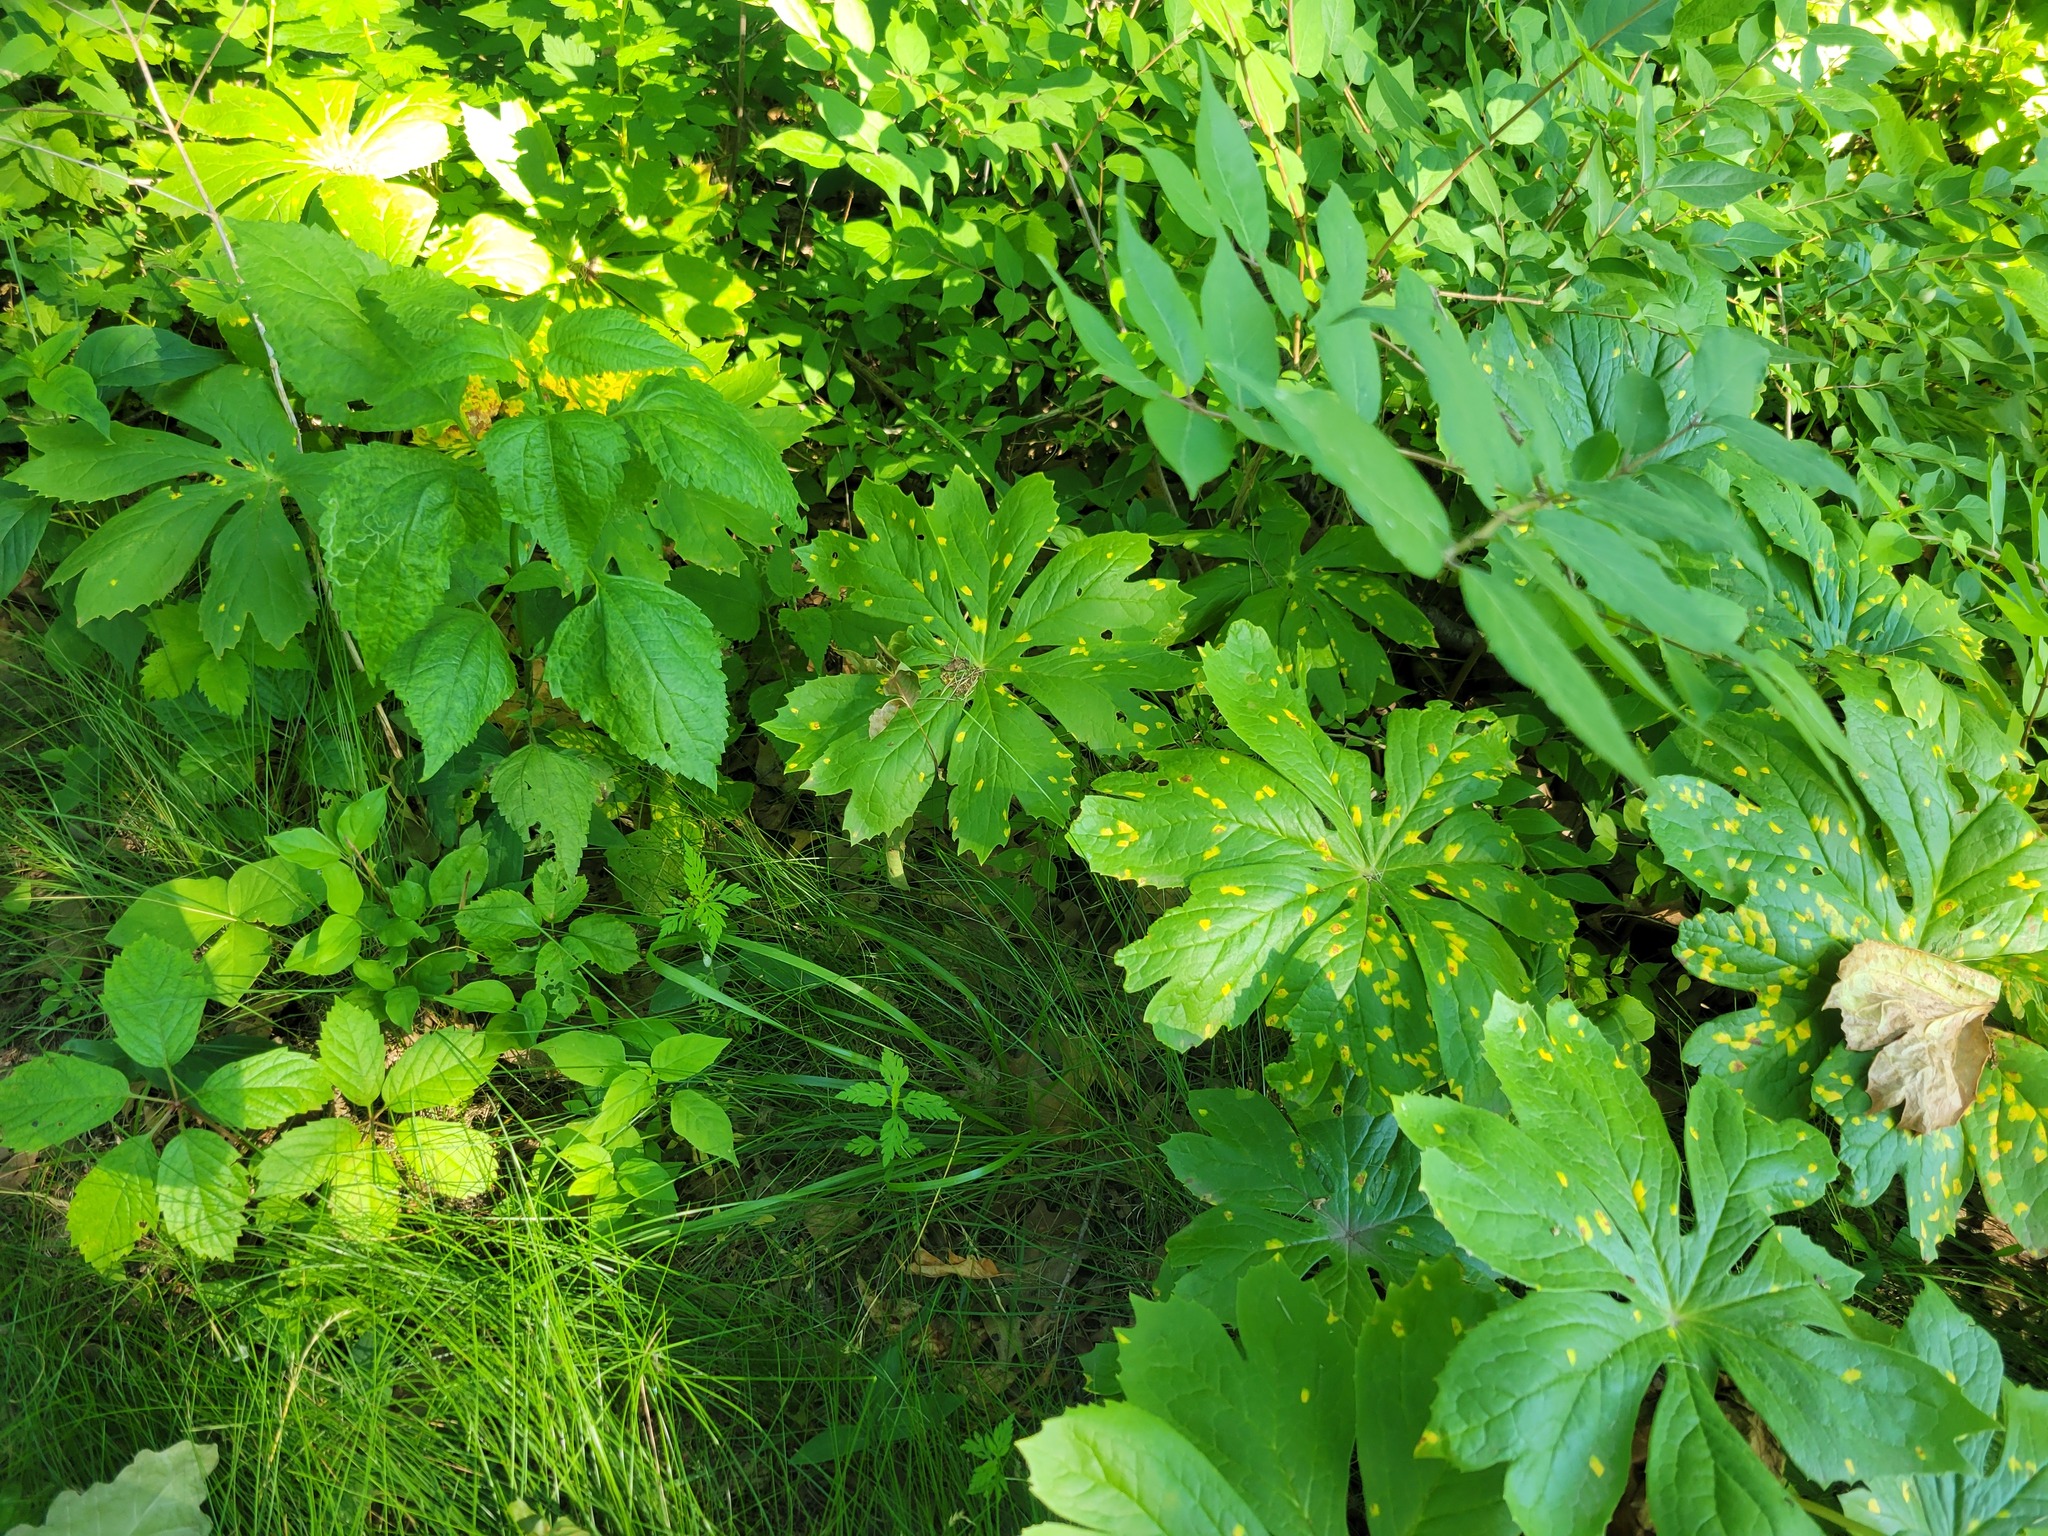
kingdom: Plantae
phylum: Tracheophyta
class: Magnoliopsida
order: Ranunculales
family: Berberidaceae
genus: Podophyllum
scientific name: Podophyllum peltatum
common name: Wild mandrake
